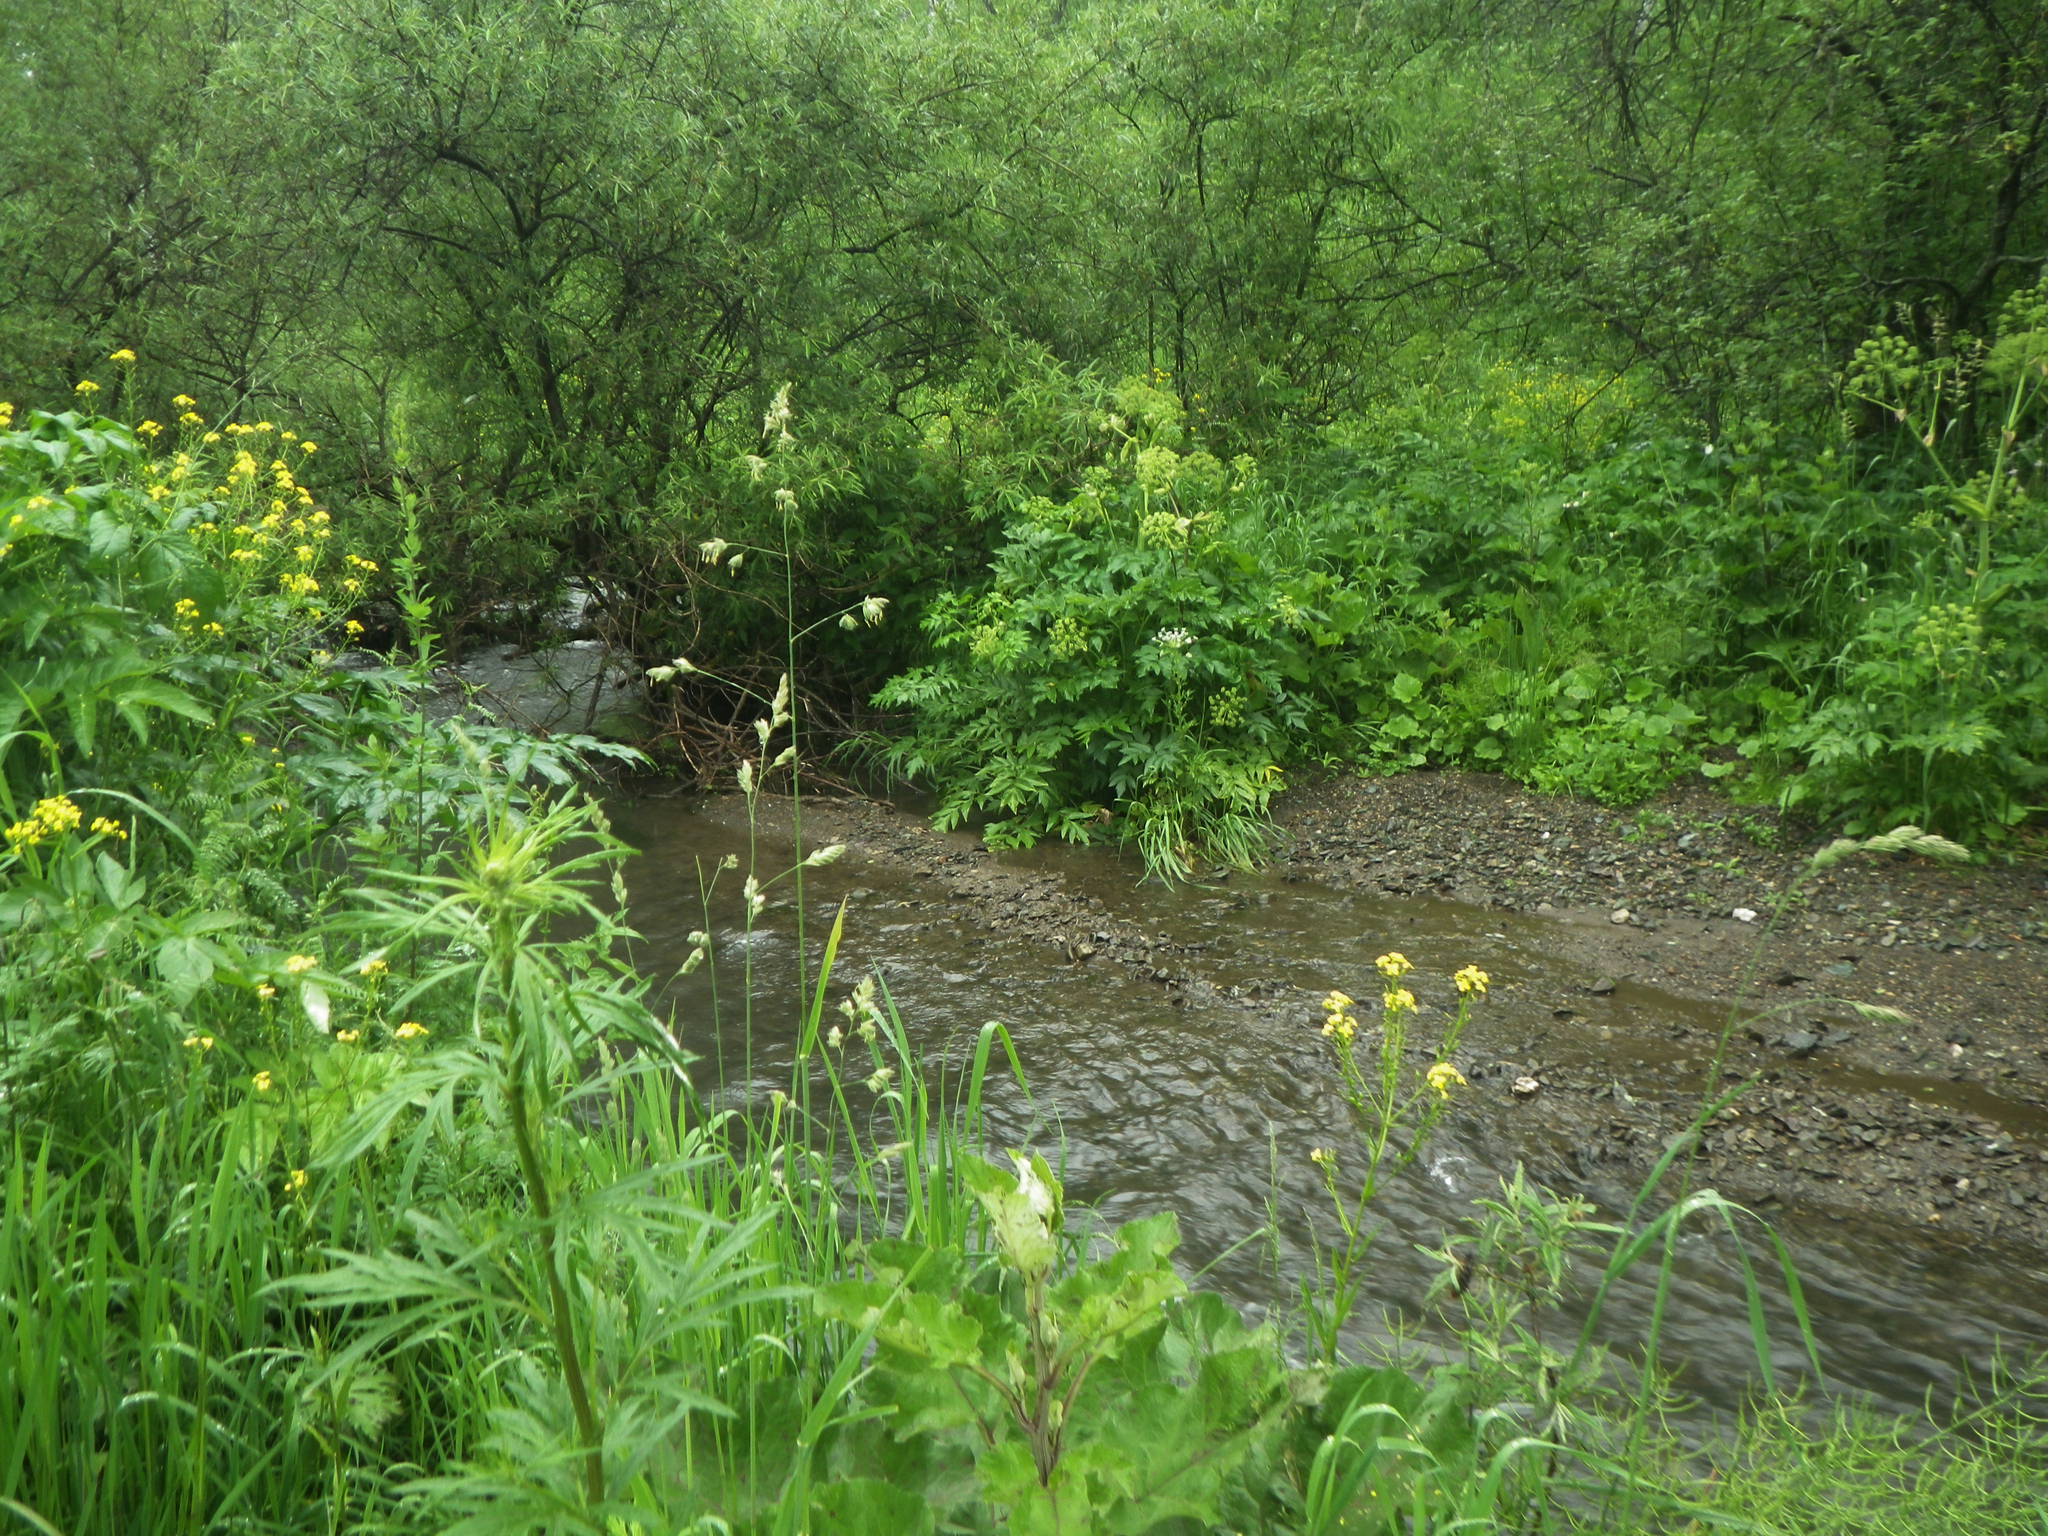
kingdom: Plantae
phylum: Tracheophyta
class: Magnoliopsida
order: Apiales
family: Apiaceae
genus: Angelica
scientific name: Angelica decurrens
